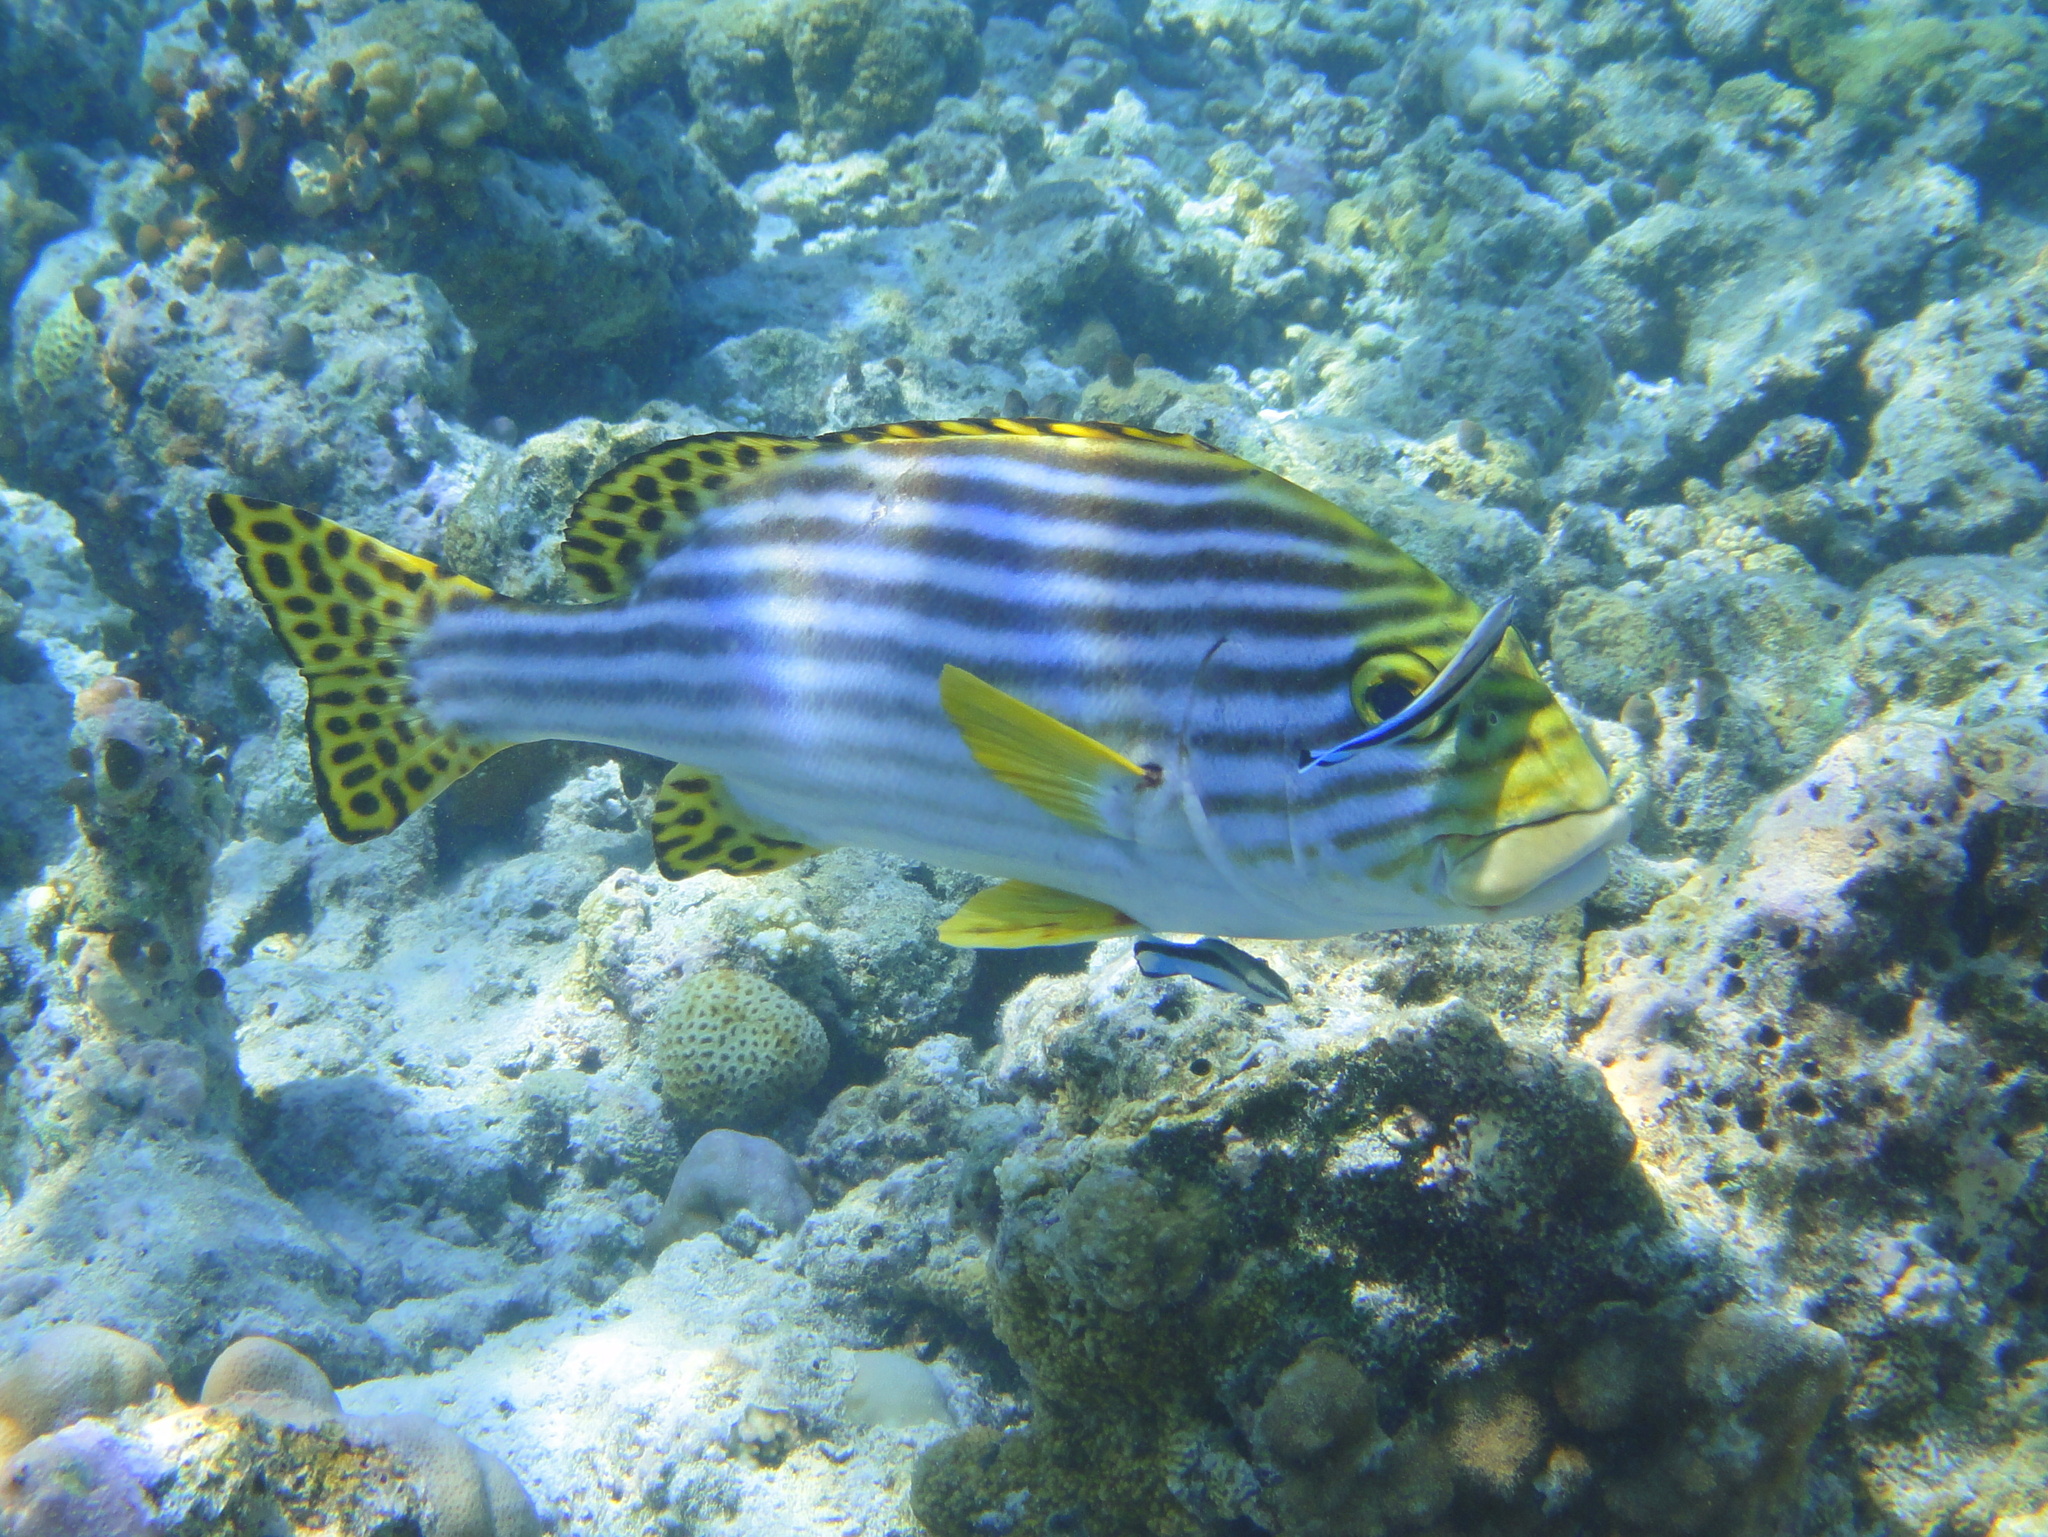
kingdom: Animalia
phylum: Chordata
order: Perciformes
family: Haemulidae
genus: Plectorhinchus
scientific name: Plectorhinchus vittatus
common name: Oriental sweetlips
